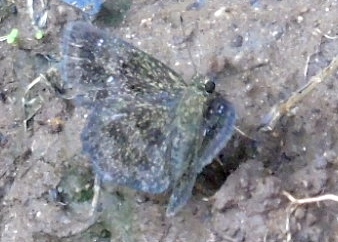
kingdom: Animalia
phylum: Arthropoda
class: Insecta
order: Lepidoptera
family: Hesperiidae
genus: Staphylus
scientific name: Staphylus
